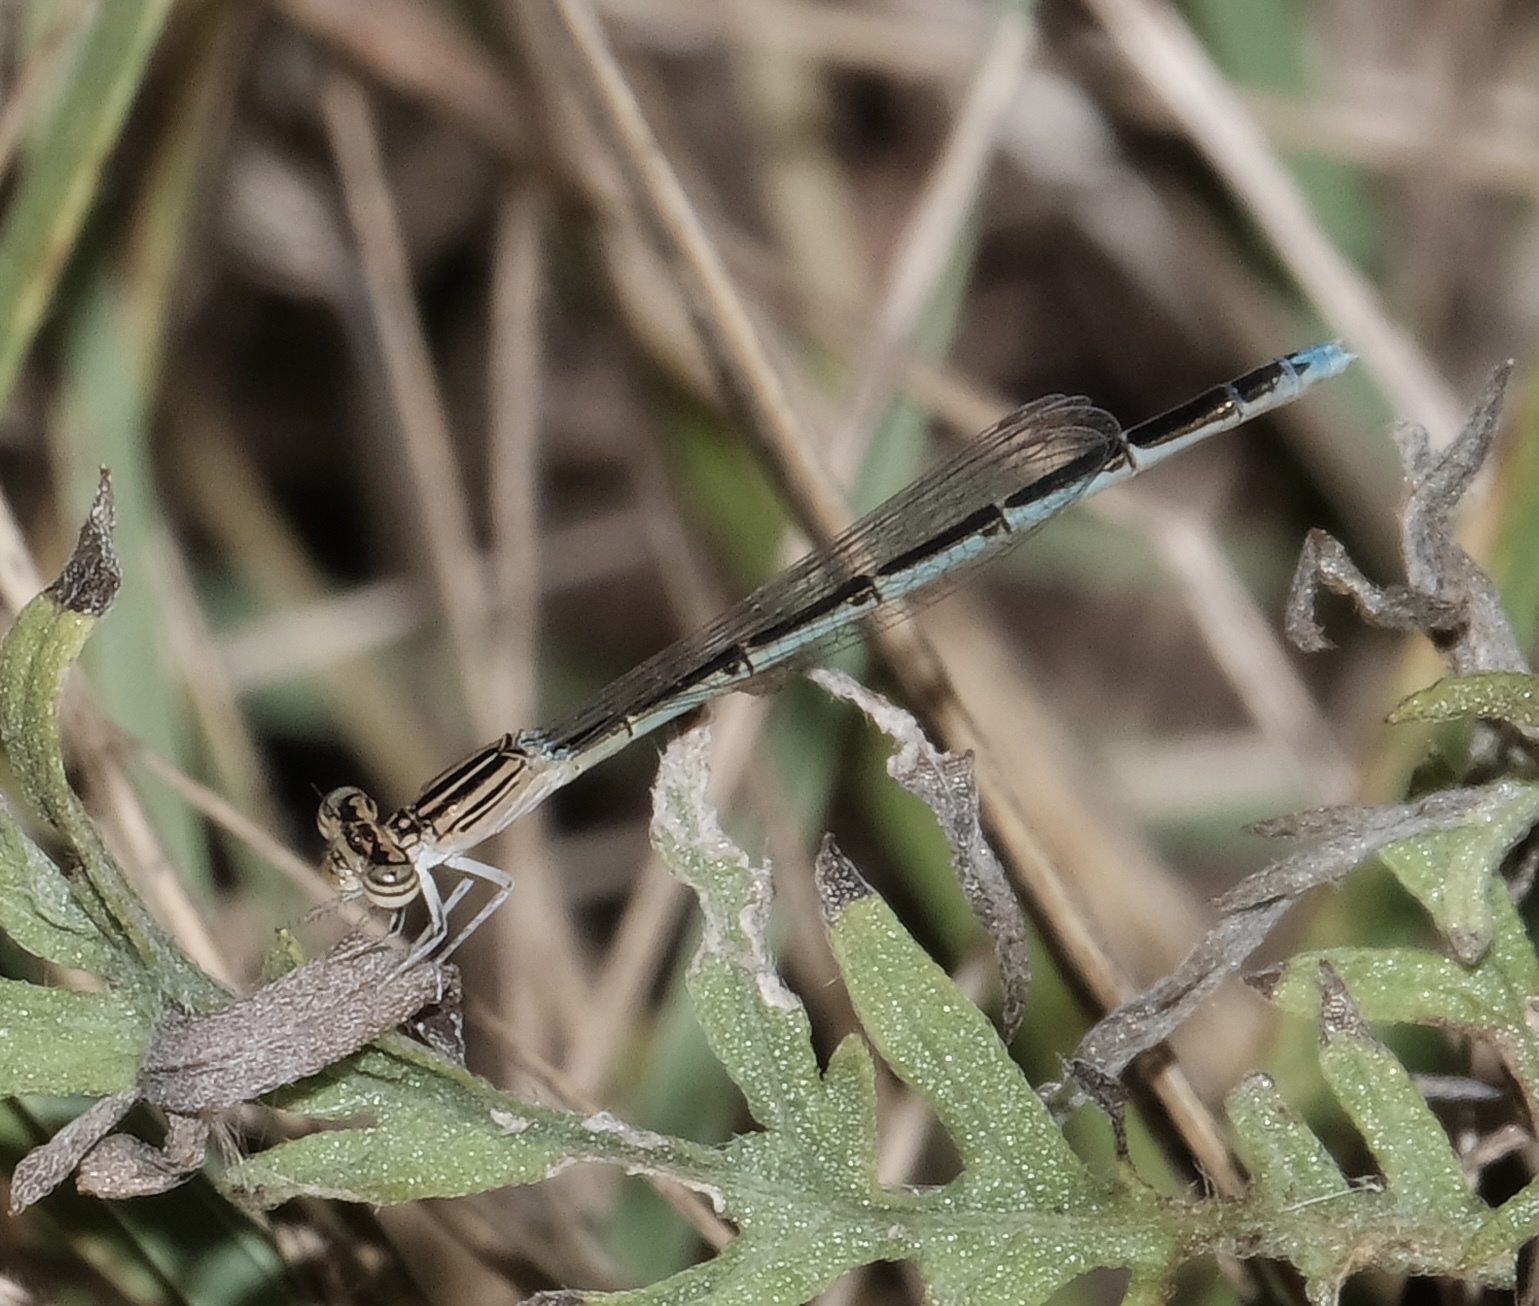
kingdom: Animalia
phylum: Arthropoda
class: Insecta
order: Odonata
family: Coenagrionidae
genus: Enallagma
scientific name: Enallagma basidens
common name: Double-striped bluet
